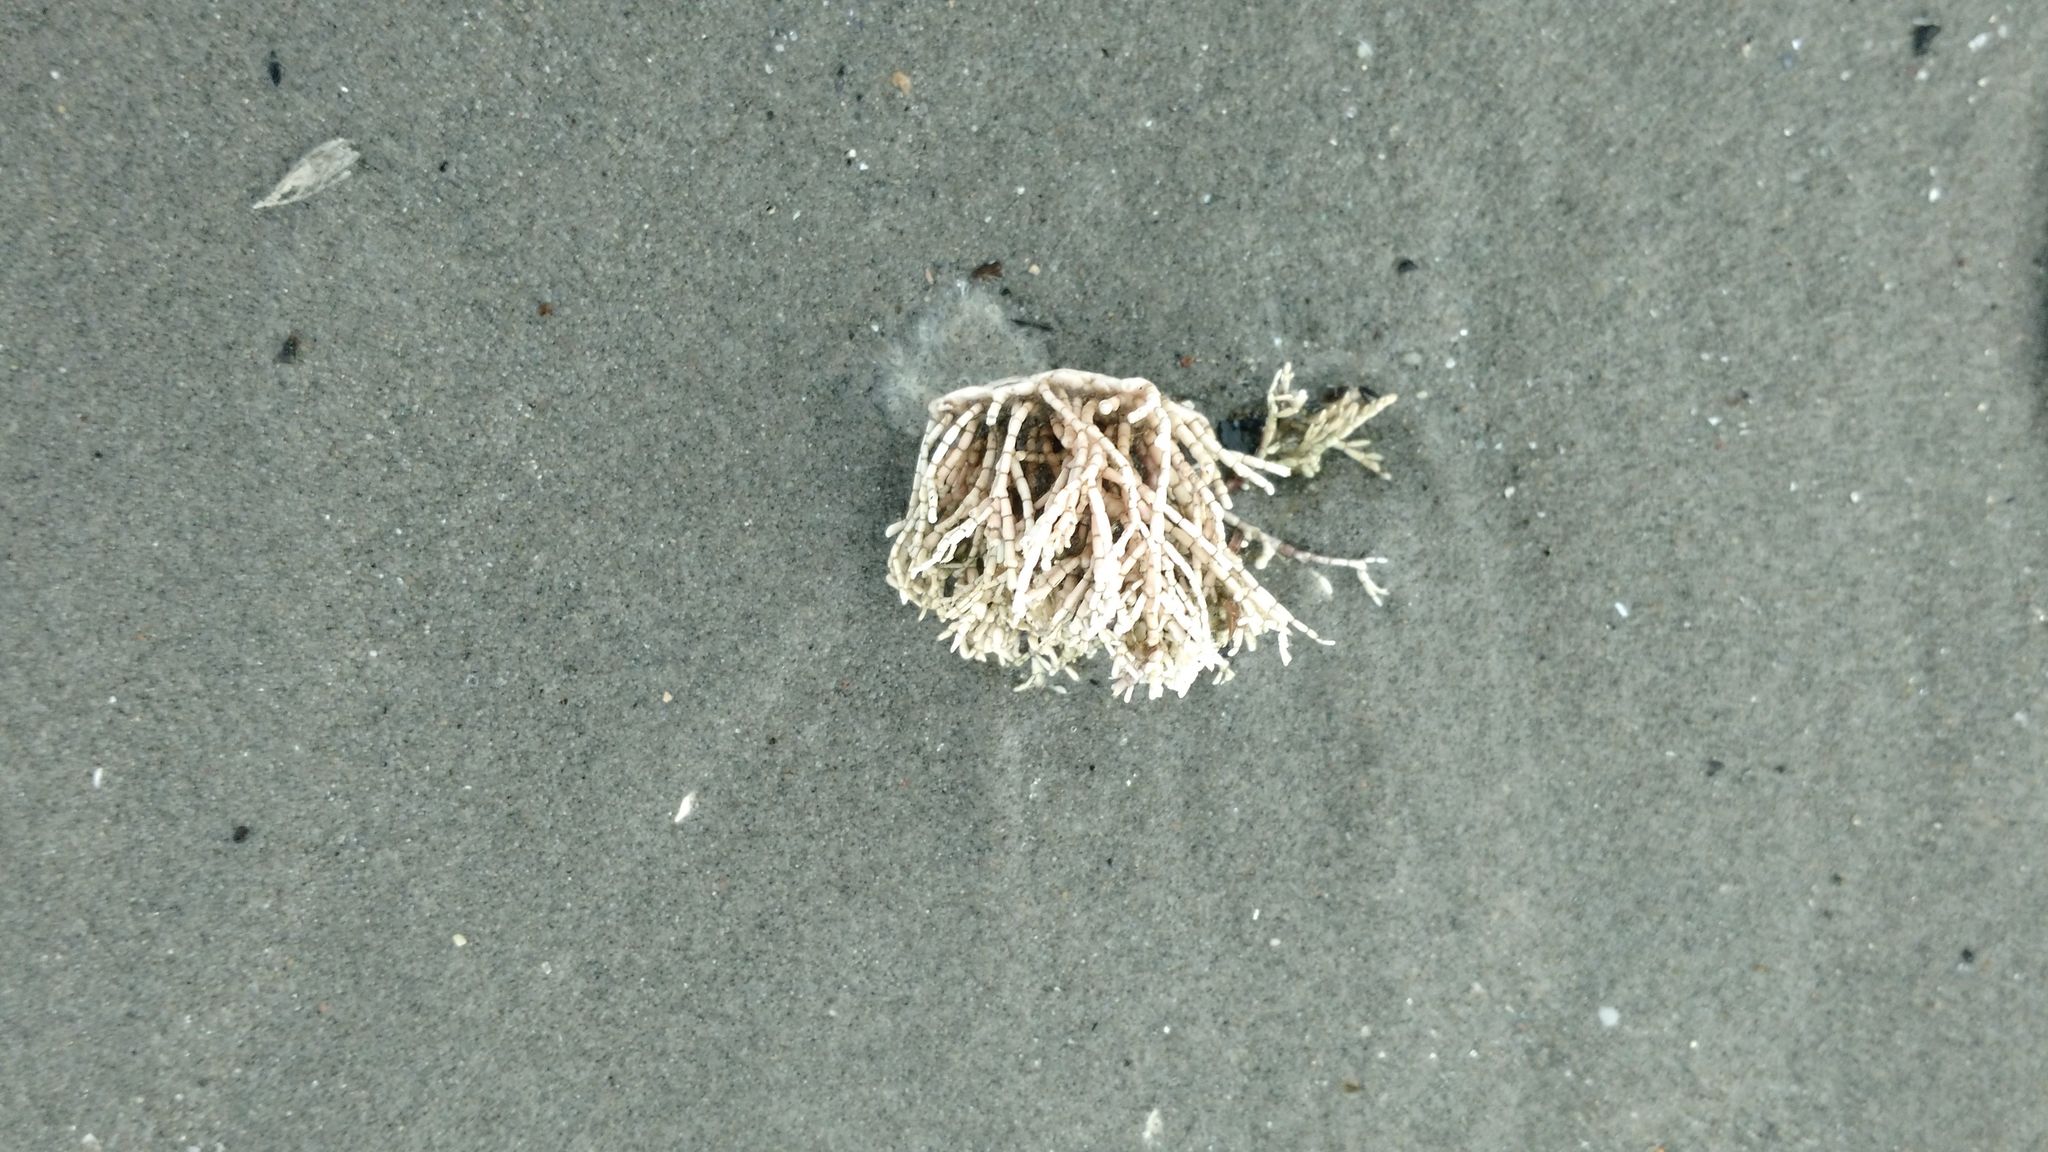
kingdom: Plantae
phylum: Rhodophyta
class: Florideophyceae
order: Corallinales
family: Corallinaceae
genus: Corallina
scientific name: Corallina officinalis
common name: Coral weed
